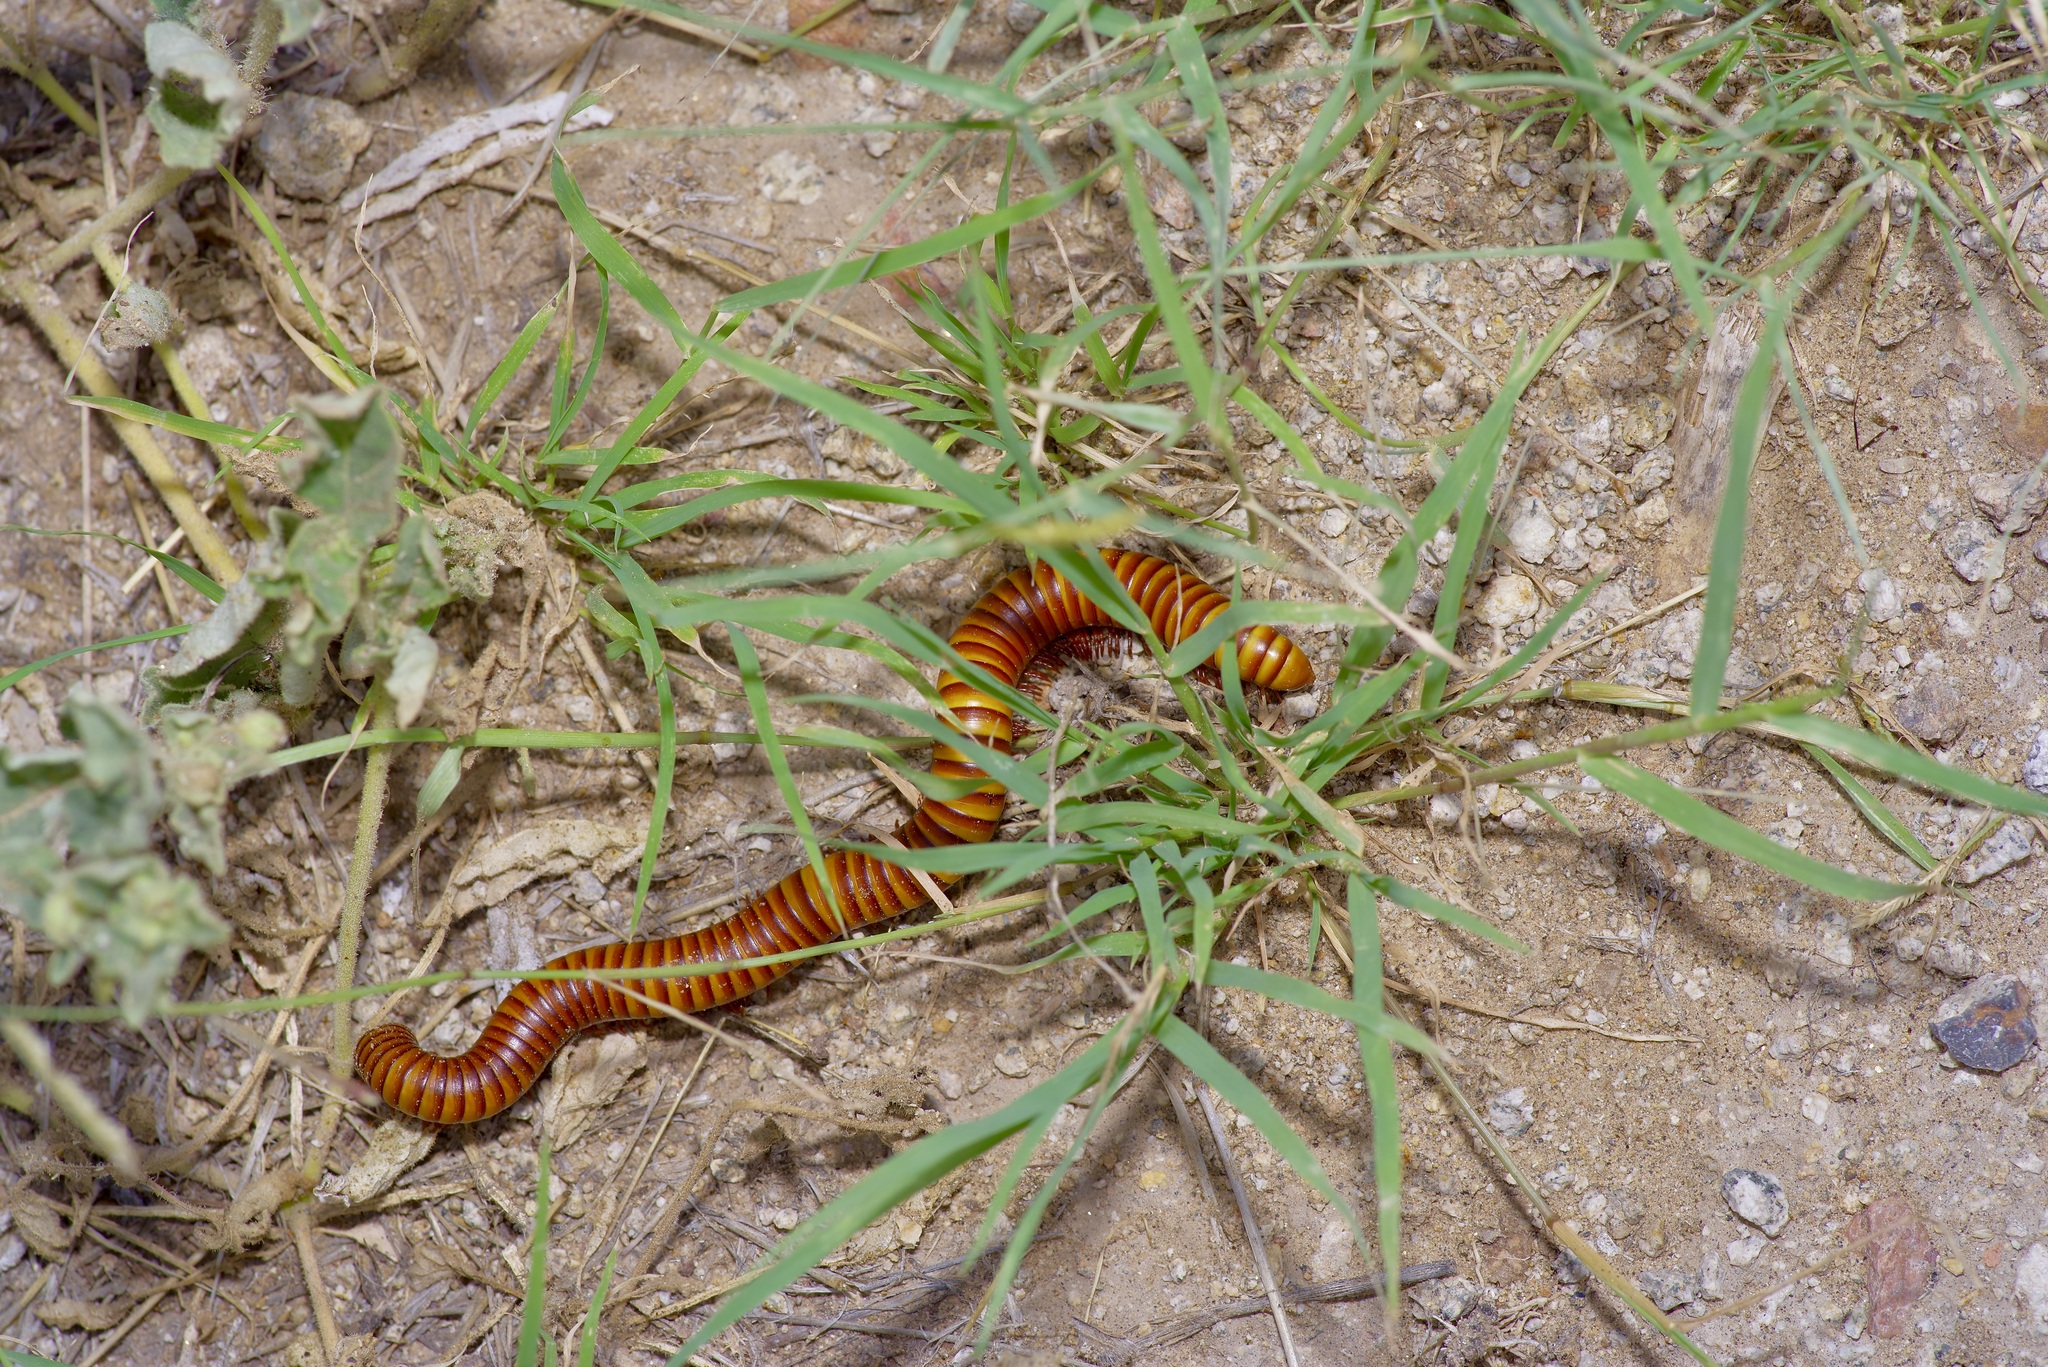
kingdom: Animalia
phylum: Arthropoda
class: Diplopoda
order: Spirostreptida
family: Spirostreptidae
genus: Orthoporus
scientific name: Orthoporus ornatus
